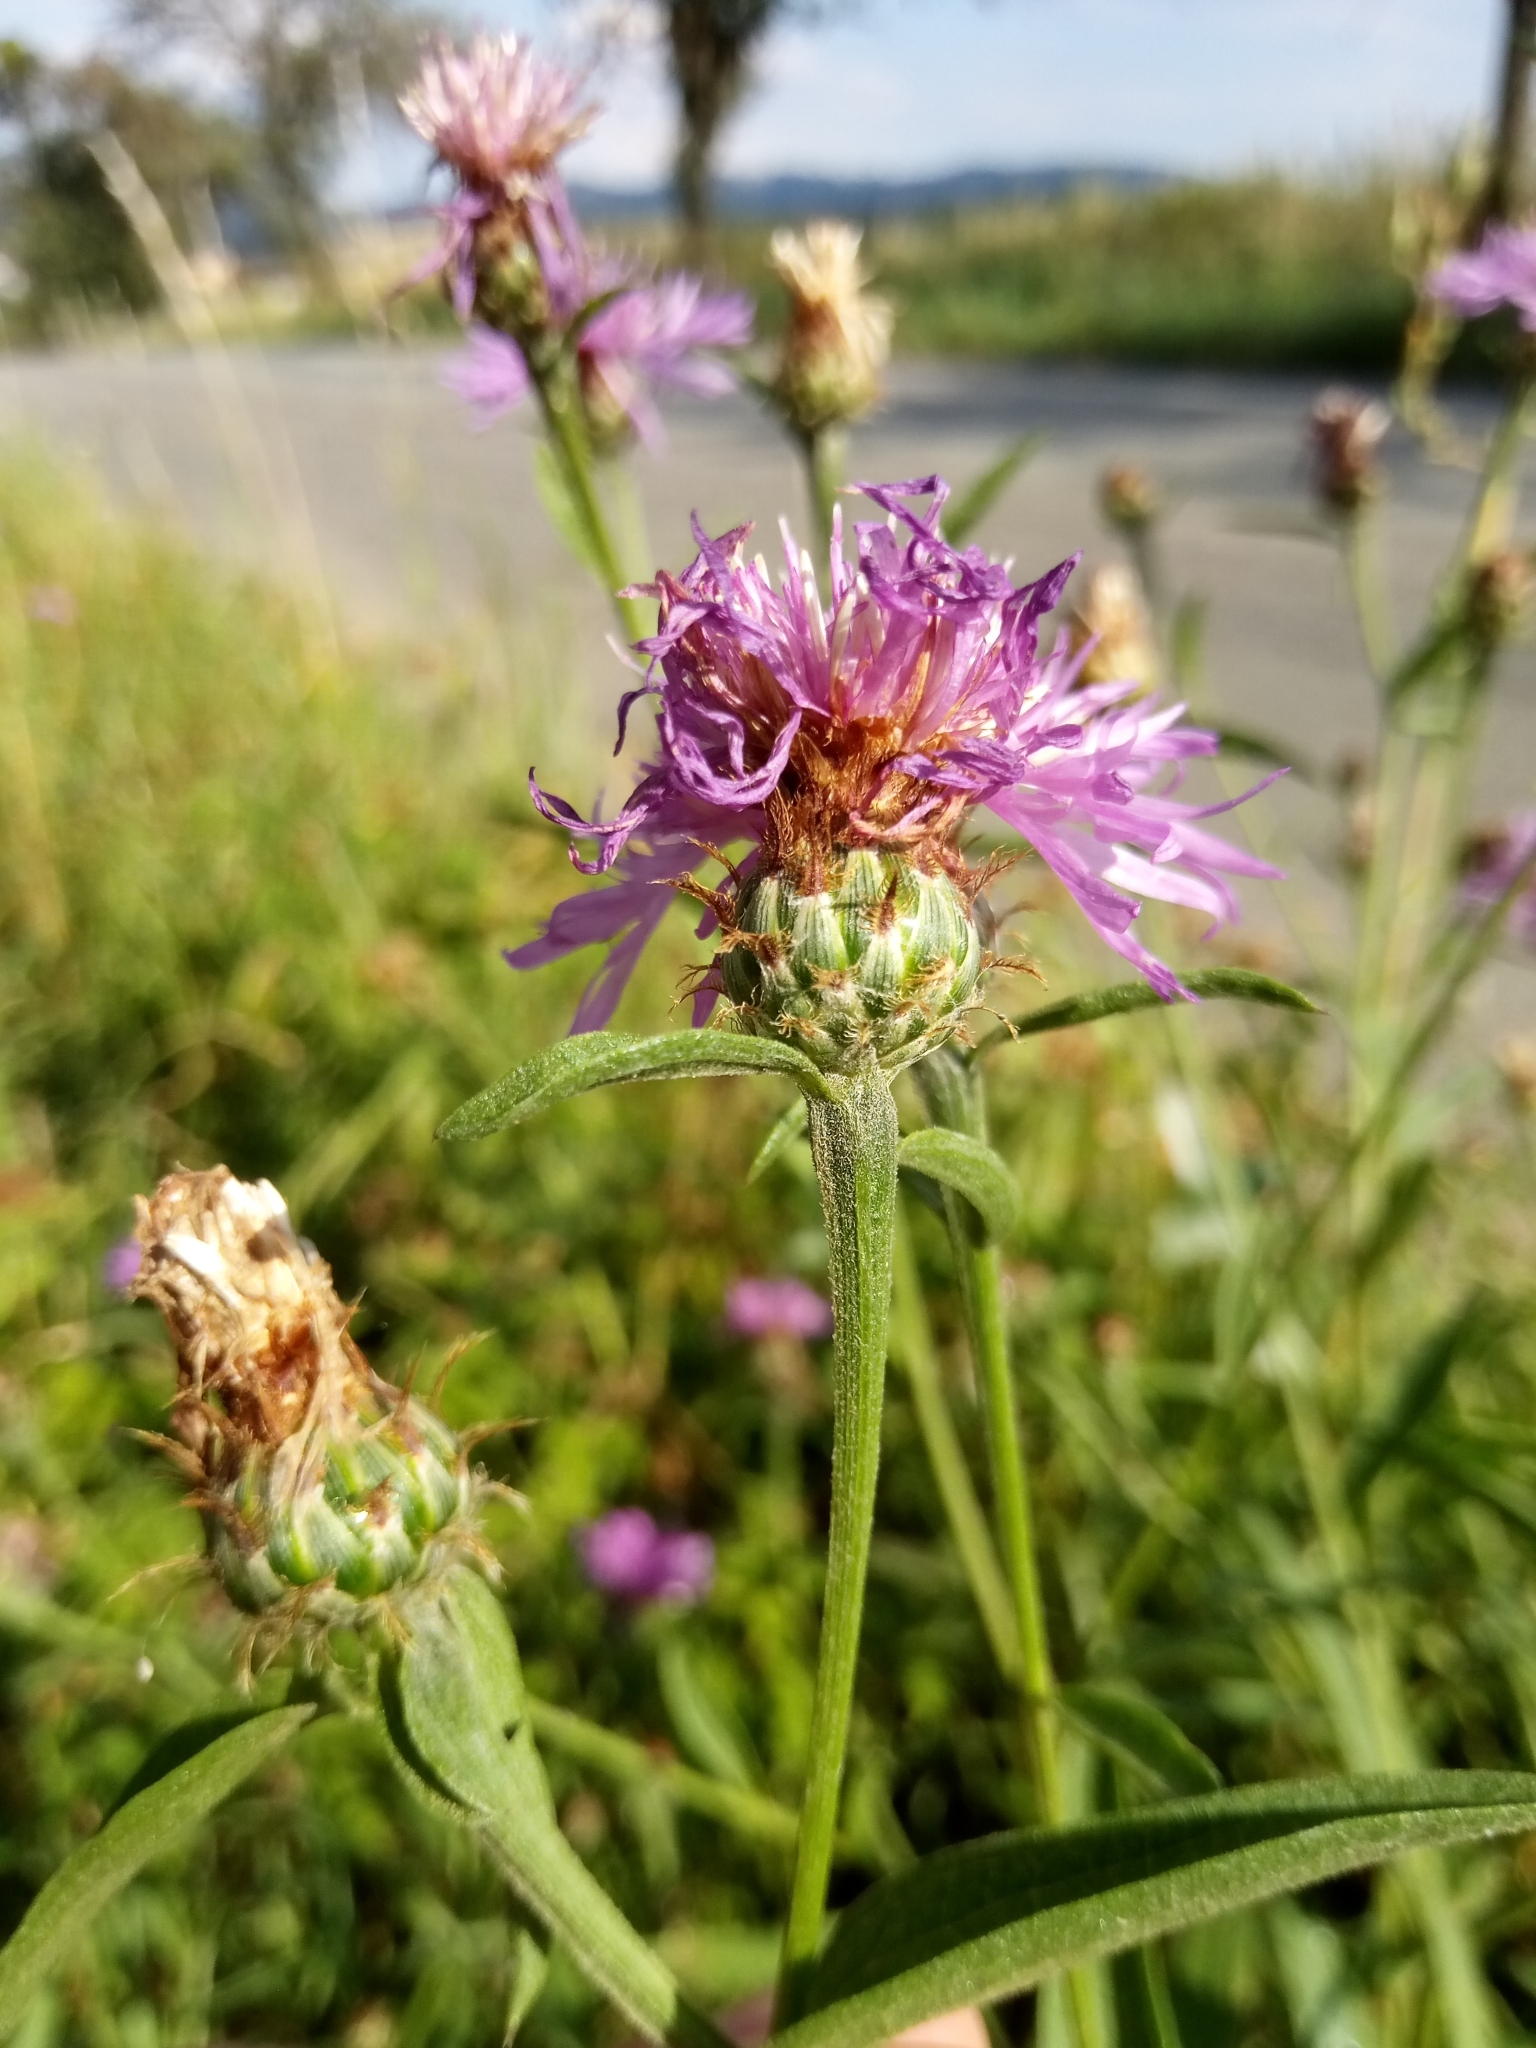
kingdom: Plantae
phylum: Tracheophyta
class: Magnoliopsida
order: Asterales
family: Asteraceae
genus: Centaurea
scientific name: Centaurea oxylepis
